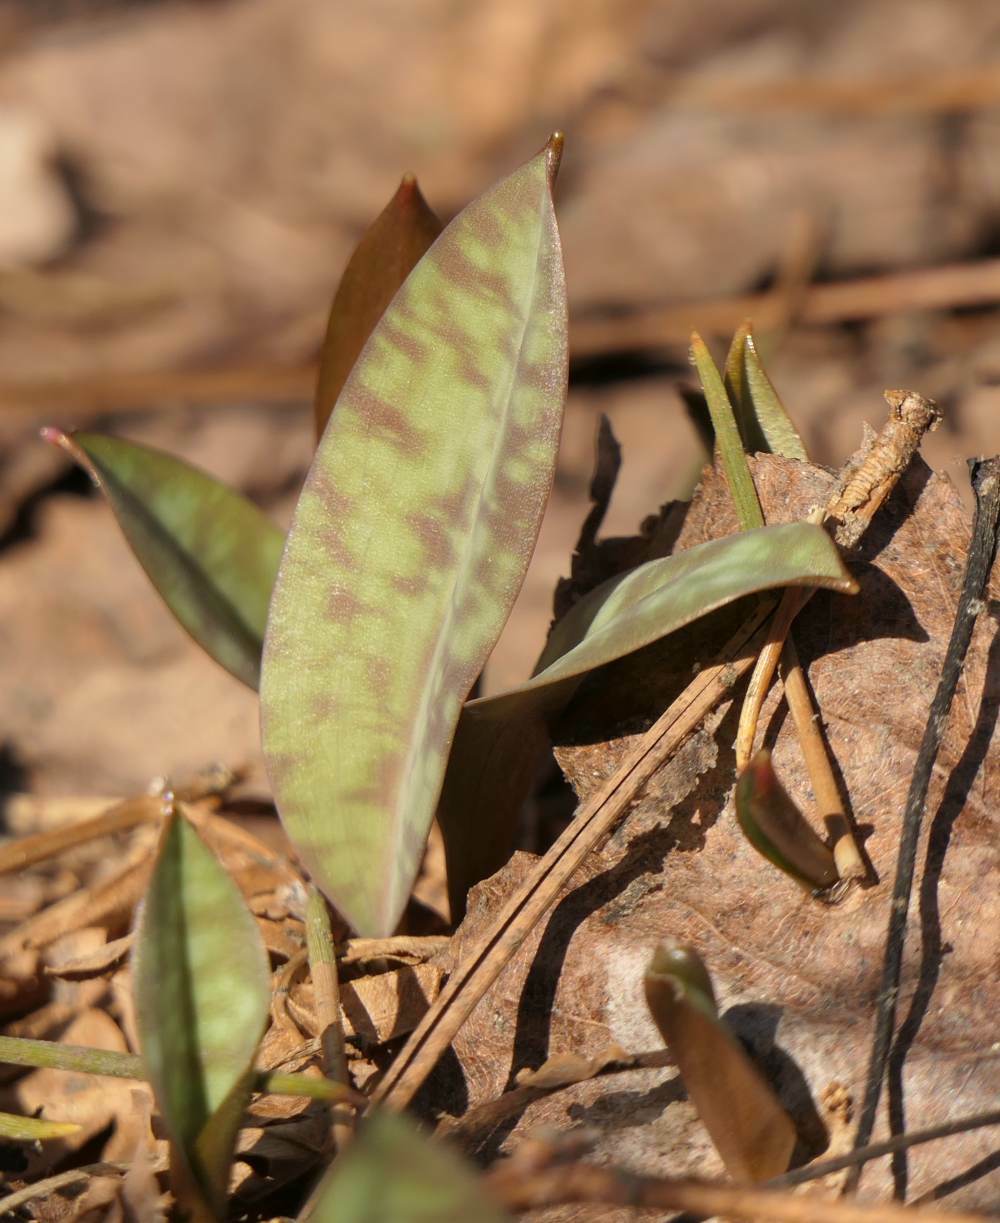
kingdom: Plantae
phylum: Tracheophyta
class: Liliopsida
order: Liliales
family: Liliaceae
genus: Erythronium
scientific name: Erythronium americanum
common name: Yellow adder's-tongue
